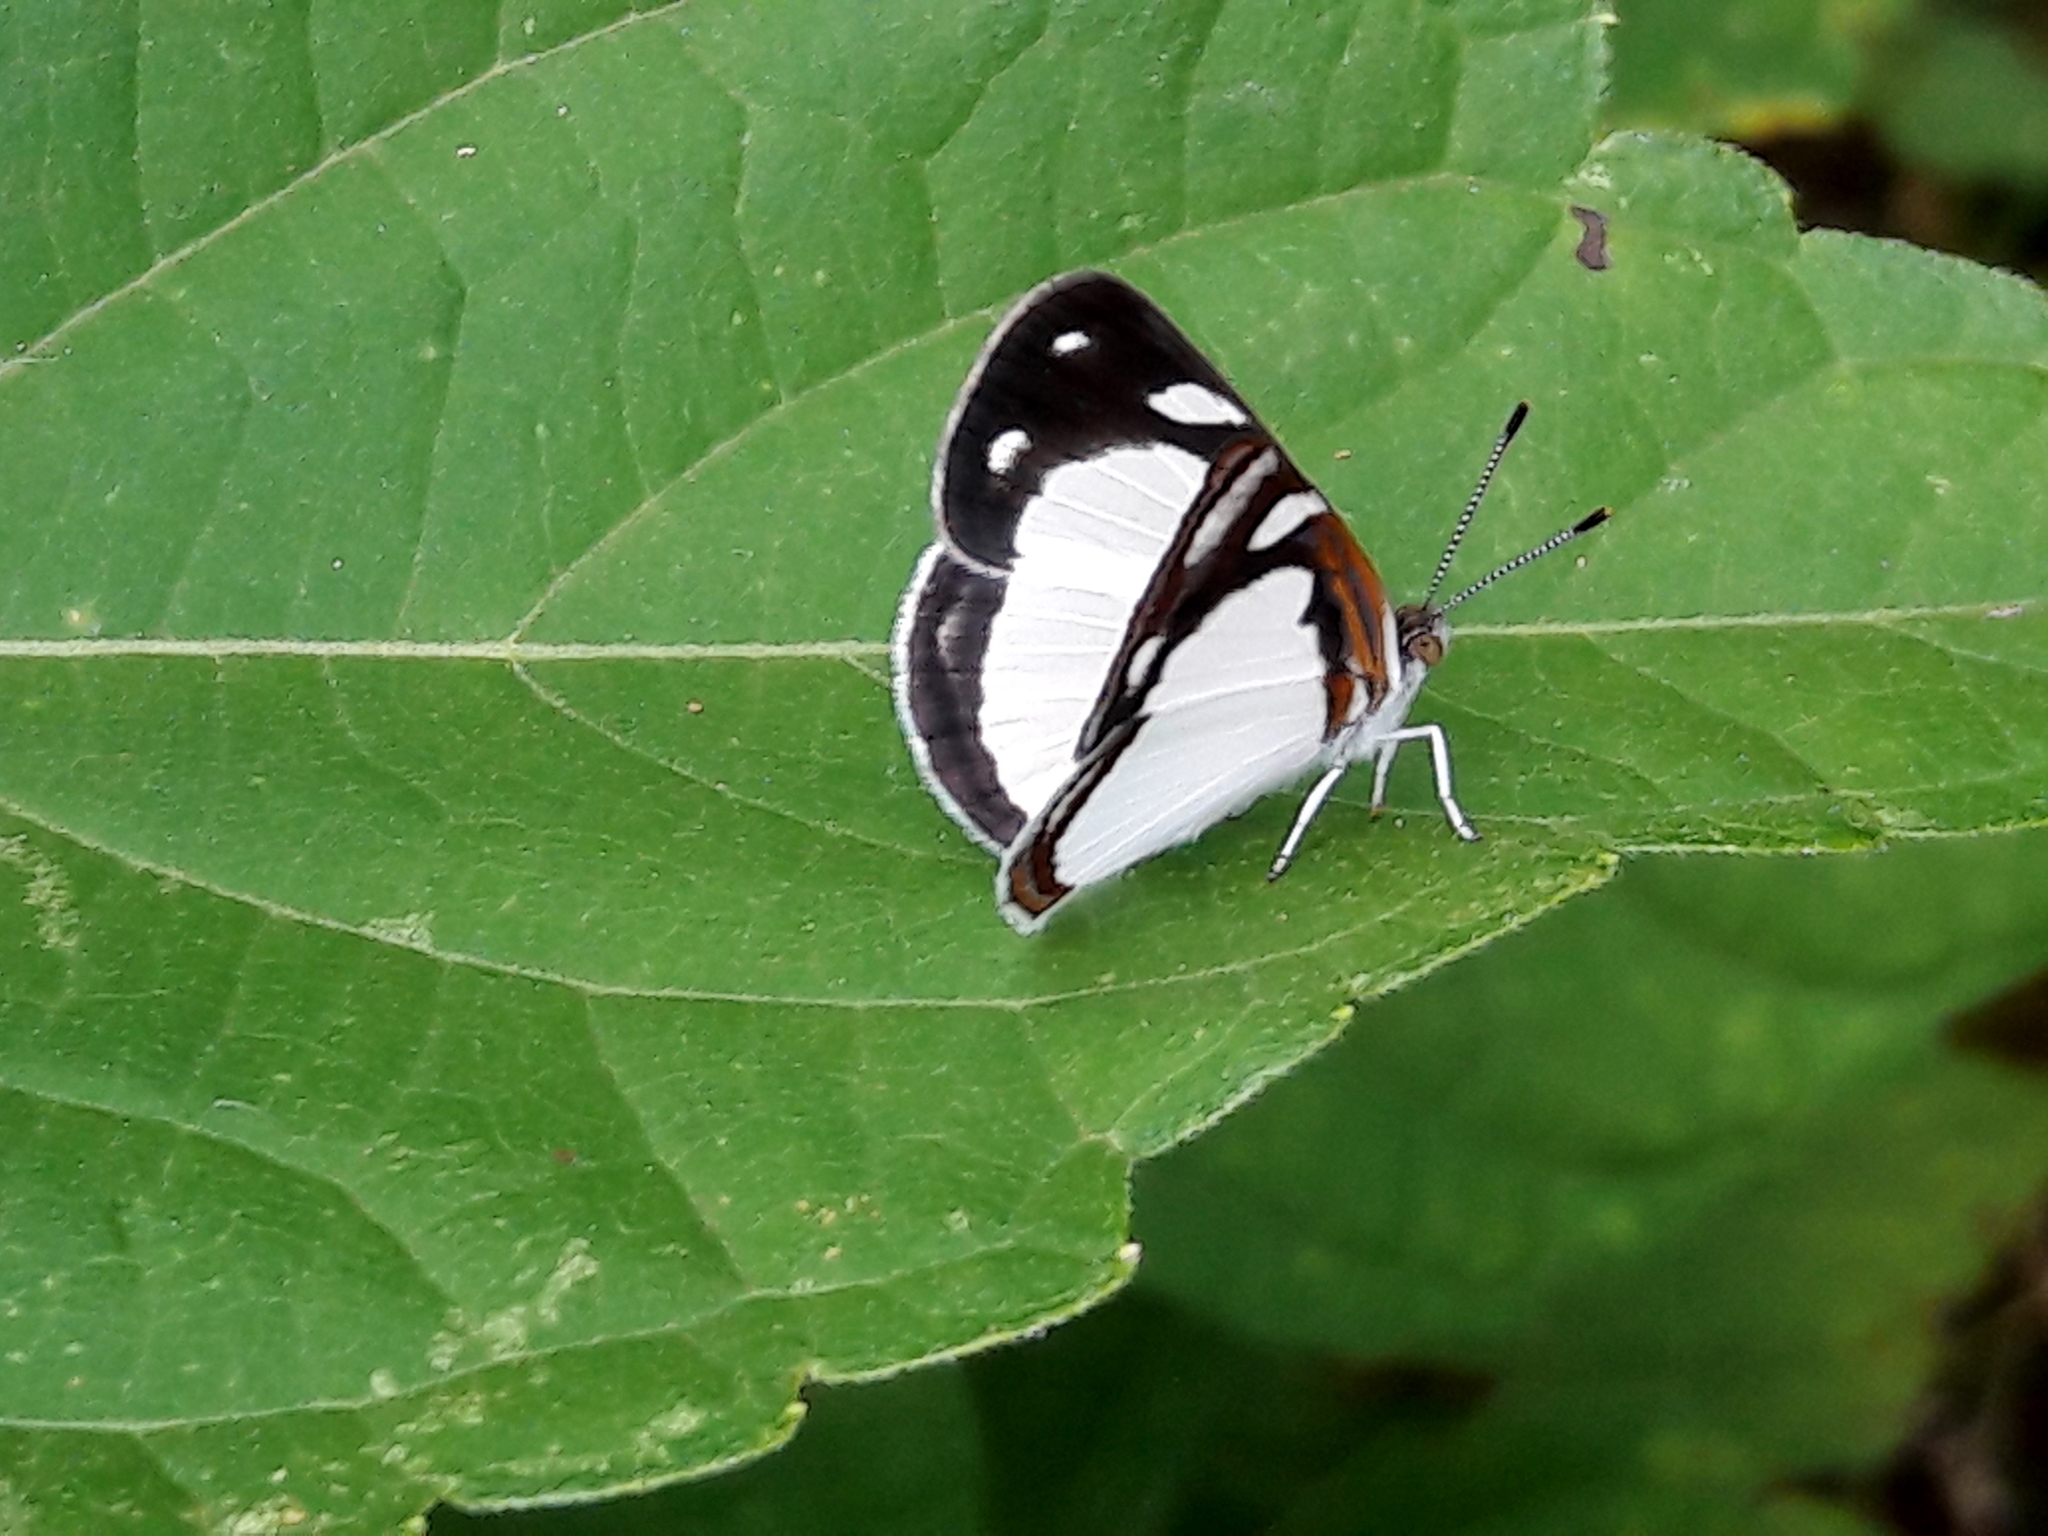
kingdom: Animalia
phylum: Arthropoda
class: Insecta
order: Lepidoptera
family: Nymphalidae
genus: Dynamine
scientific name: Dynamine agacles
